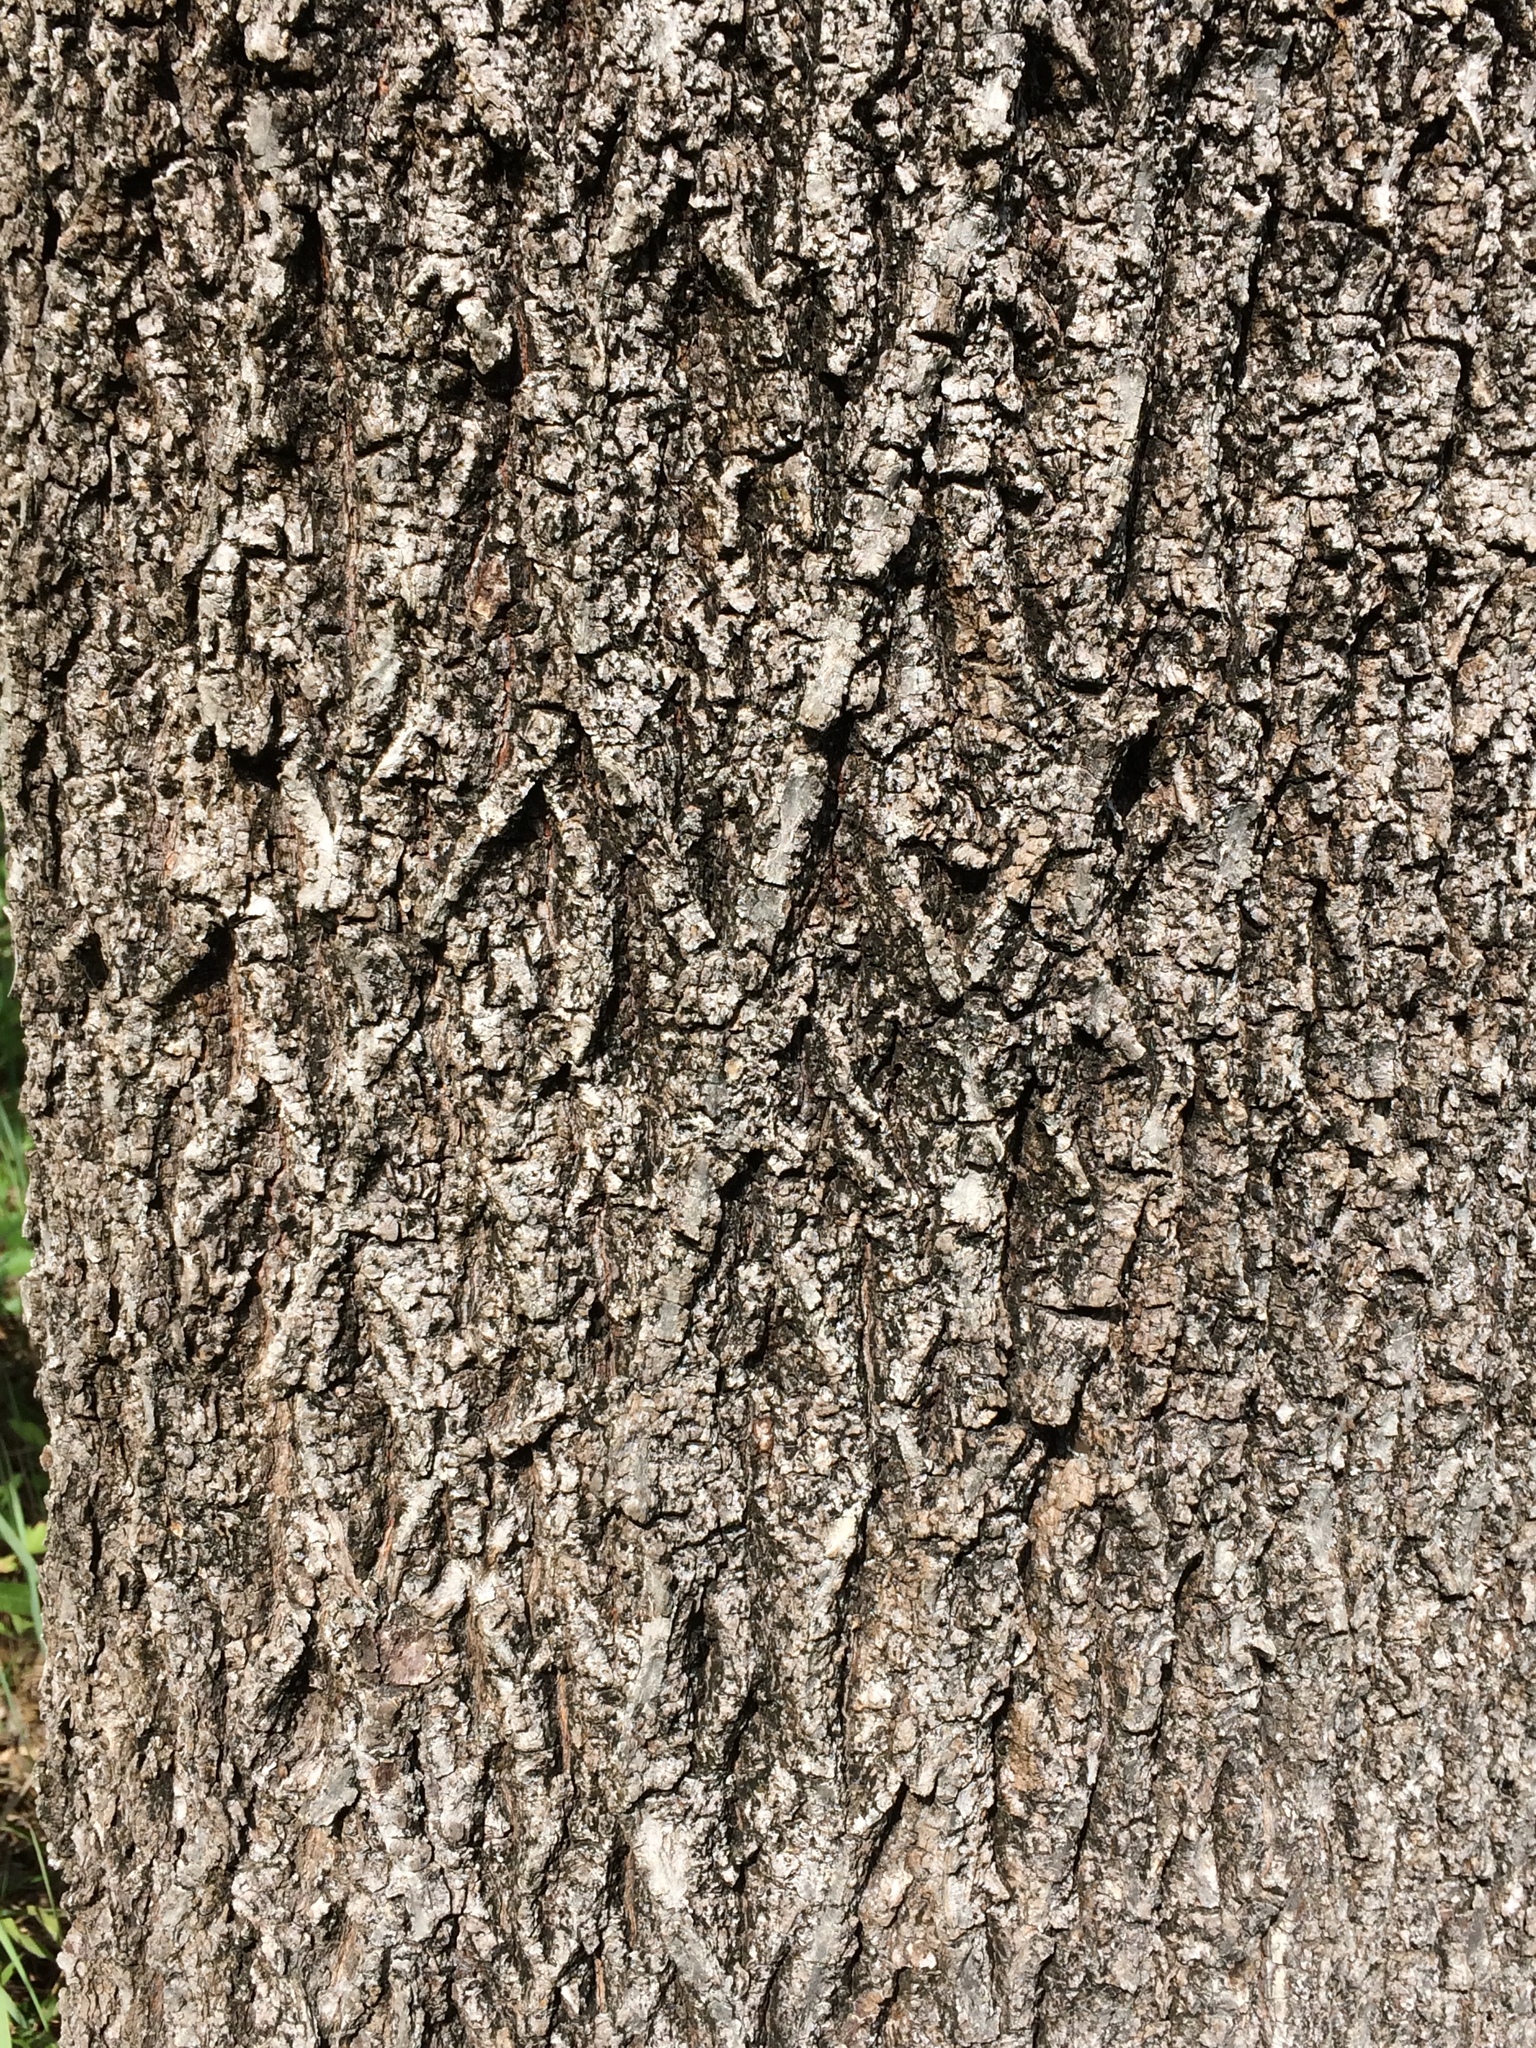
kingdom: Plantae
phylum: Tracheophyta
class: Magnoliopsida
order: Fagales
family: Juglandaceae
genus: Carya
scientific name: Carya alba
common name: Mockernut hickory
